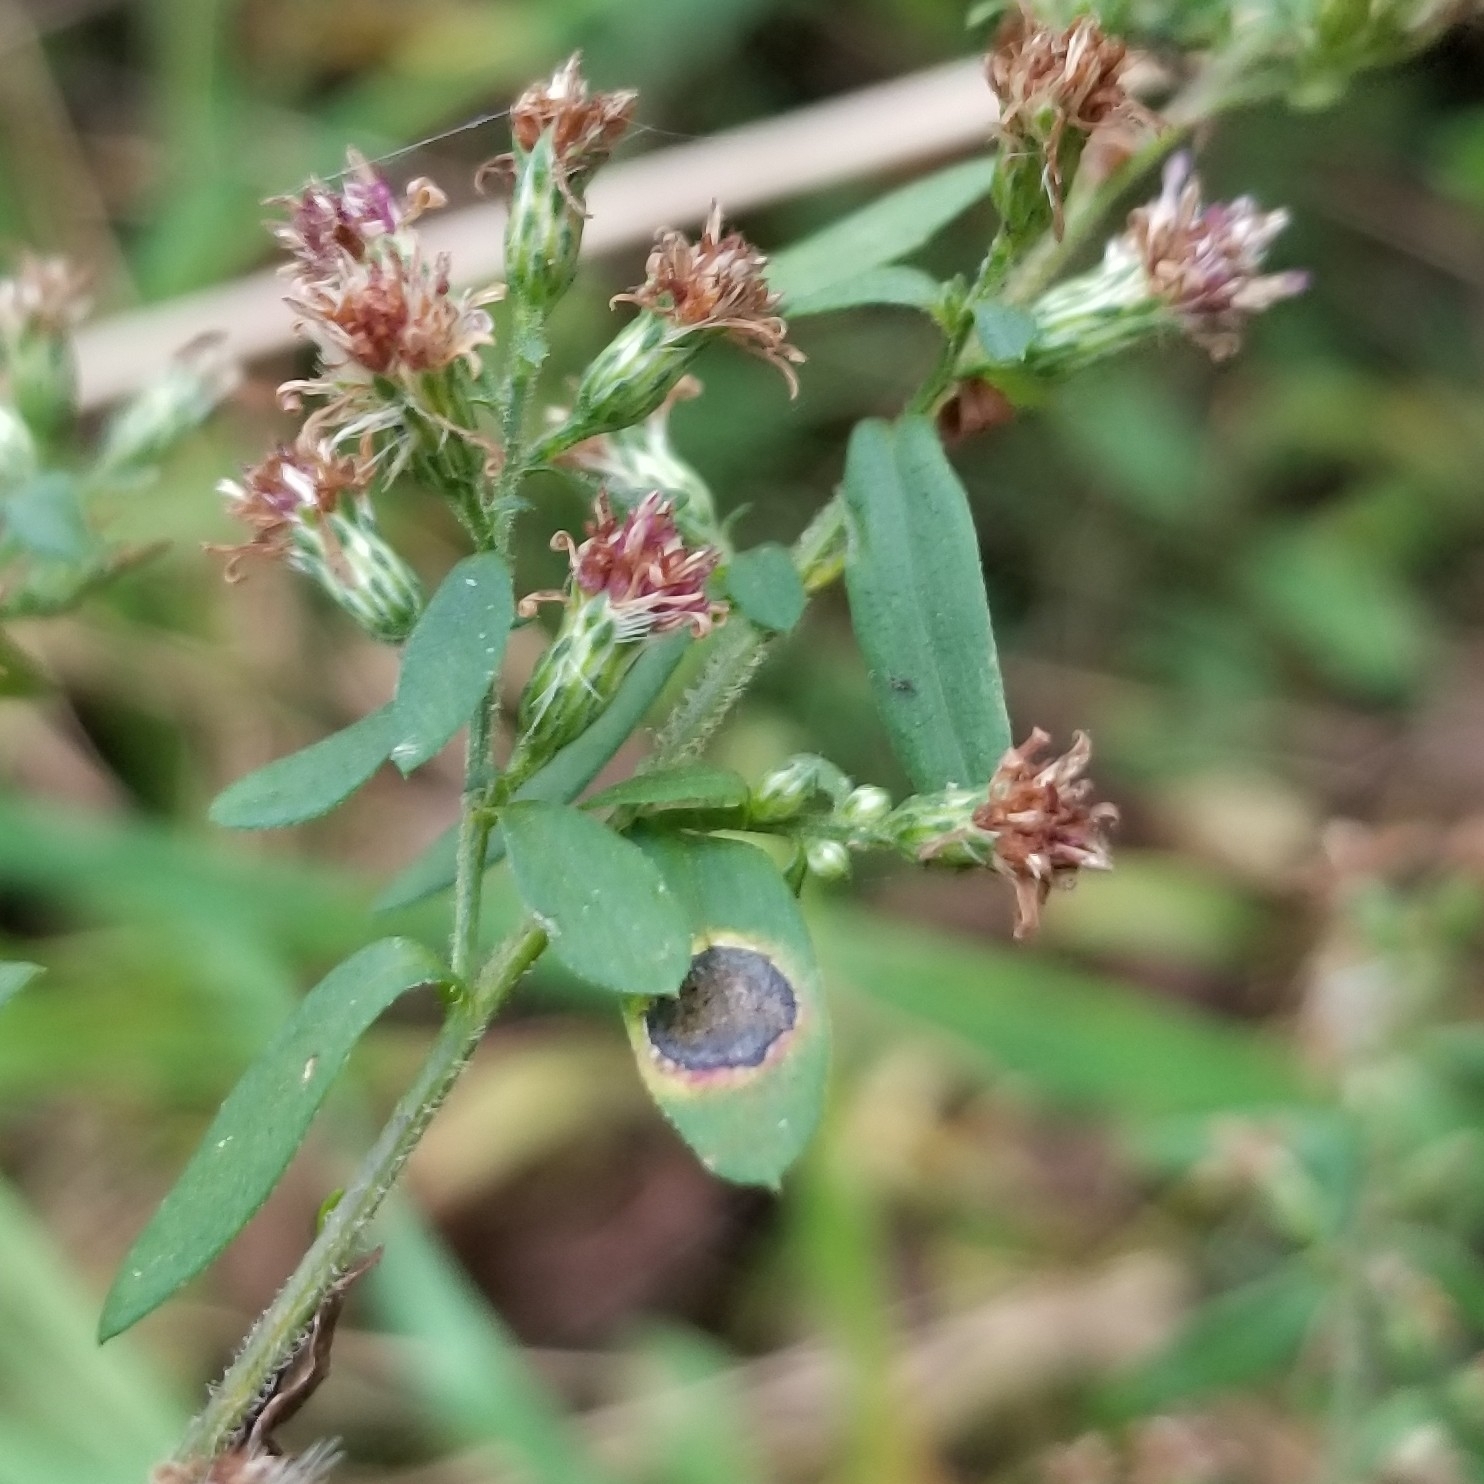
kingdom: Animalia
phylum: Arthropoda
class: Insecta
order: Diptera
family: Cecidomyiidae
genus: Asteromyia
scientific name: Asteromyia laeviana
